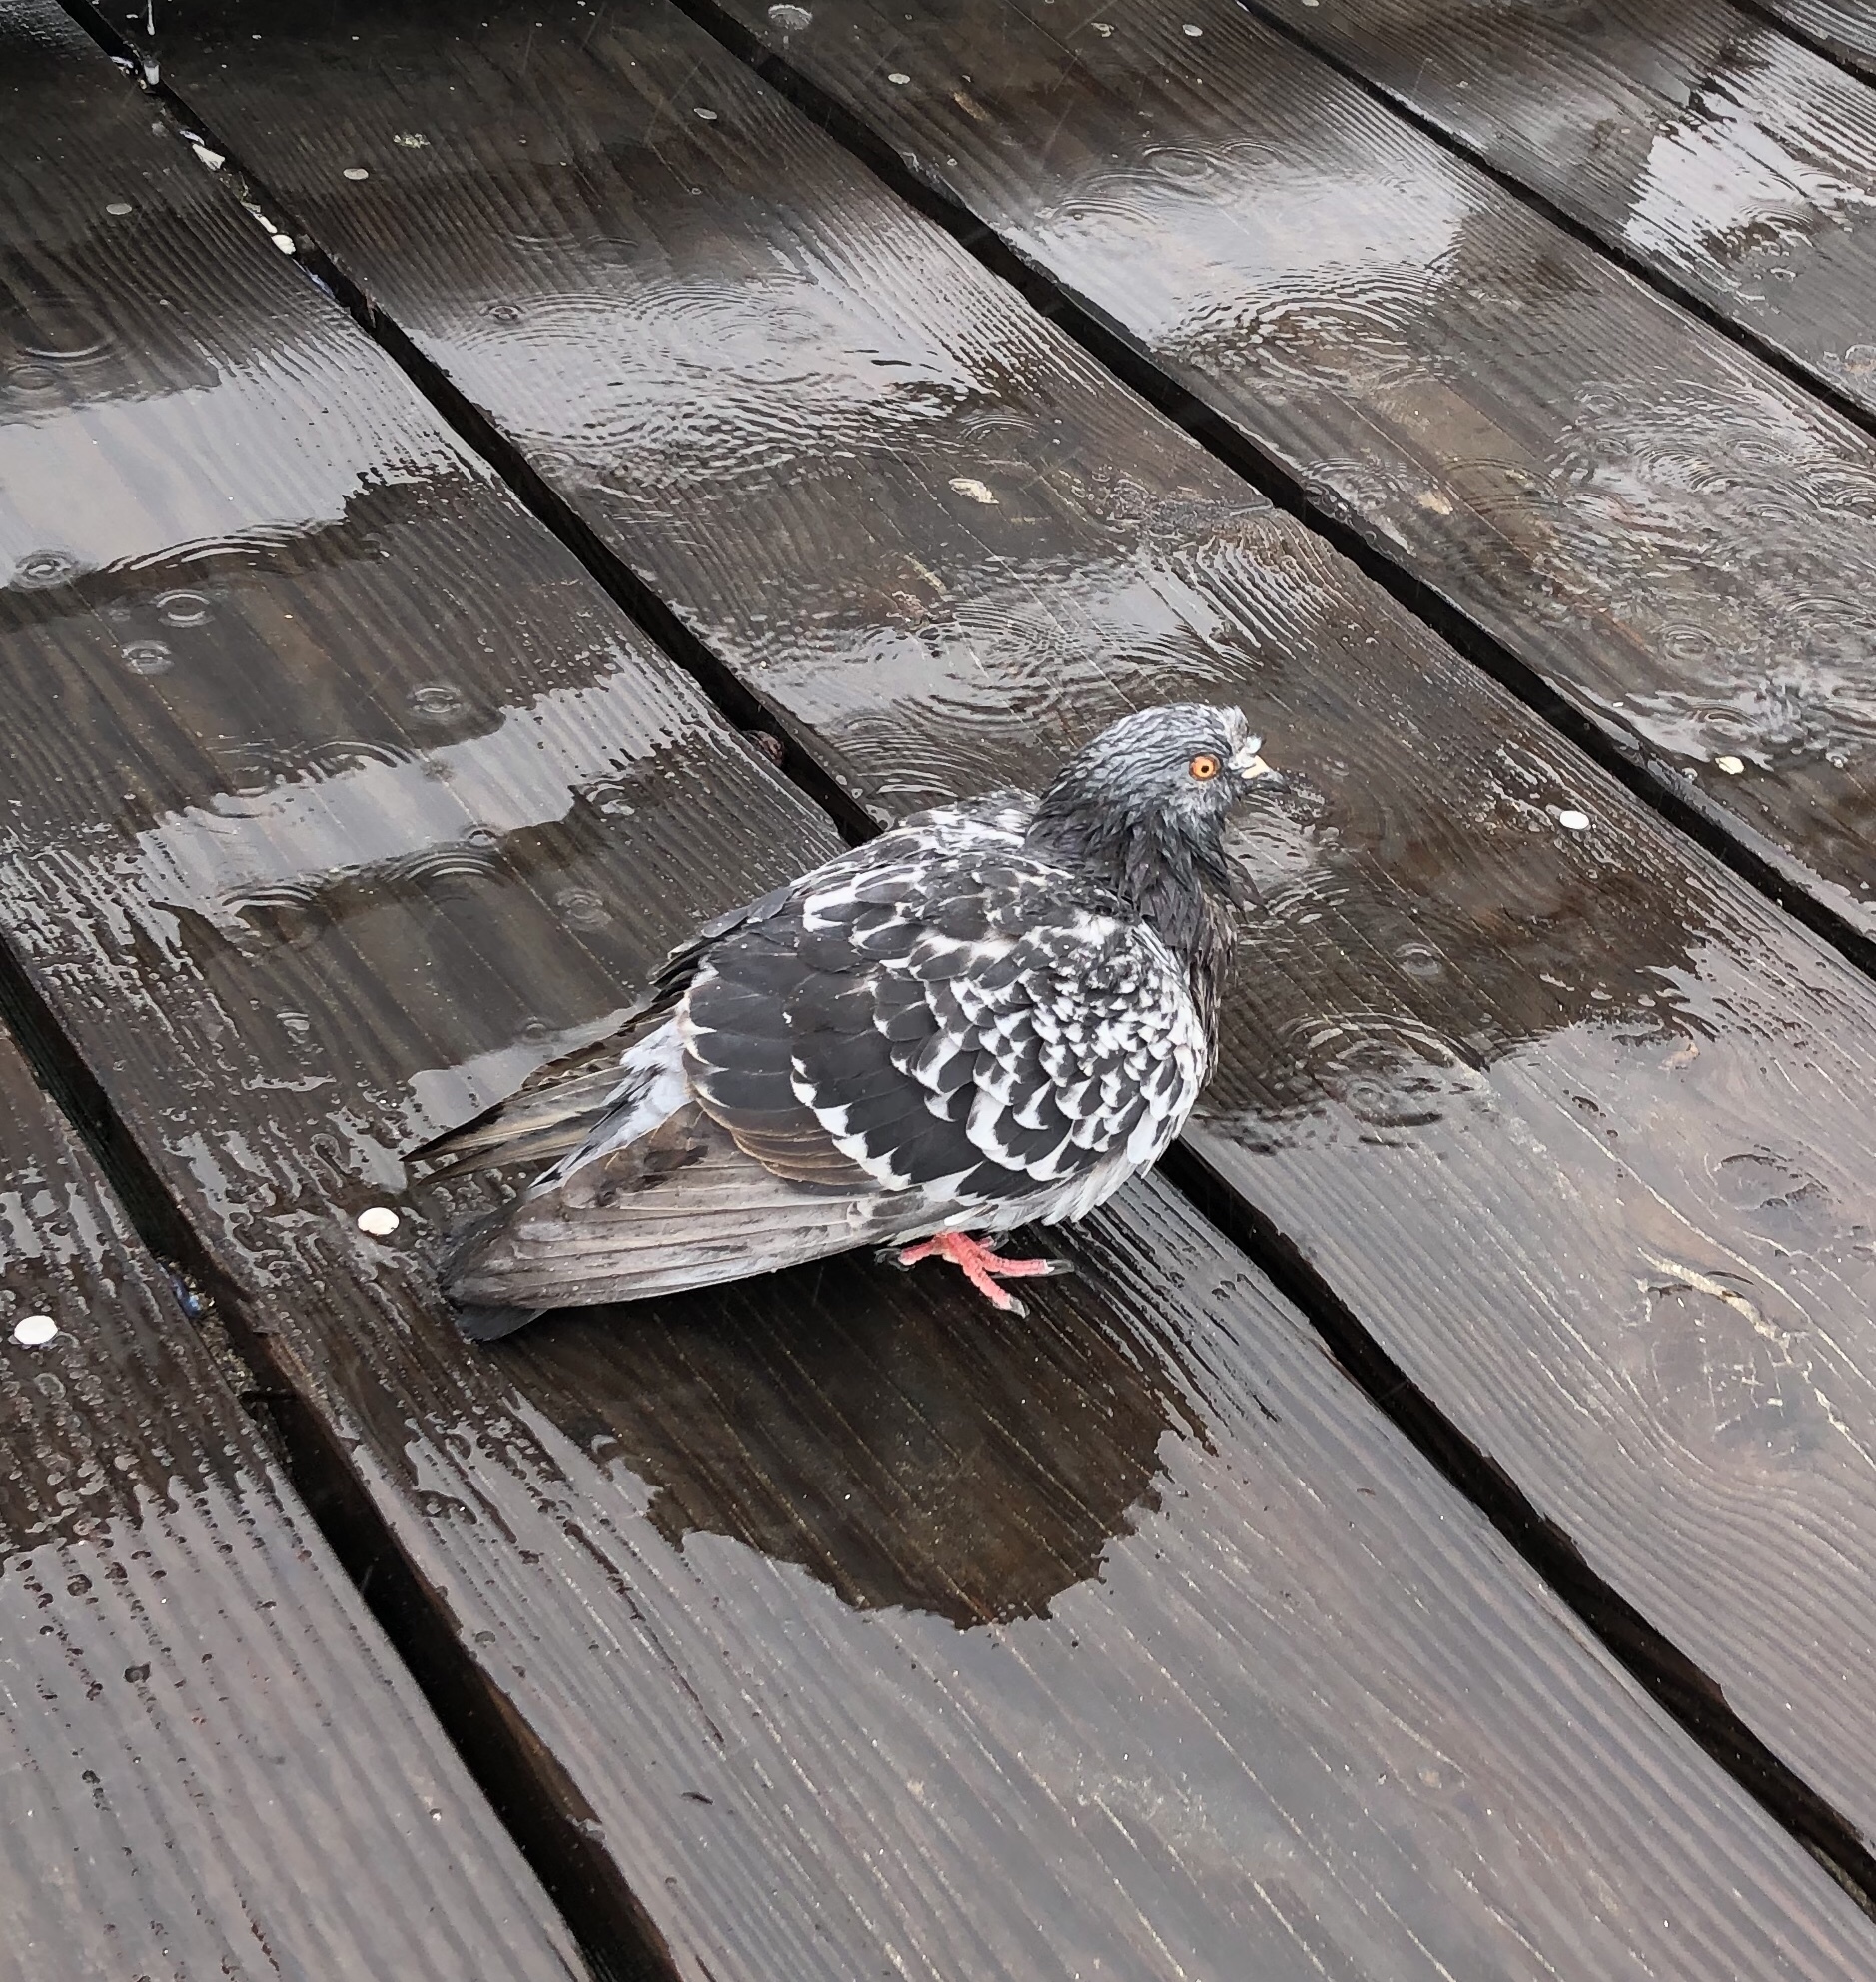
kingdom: Animalia
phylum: Chordata
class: Aves
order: Columbiformes
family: Columbidae
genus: Columba
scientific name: Columba livia
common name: Rock pigeon
